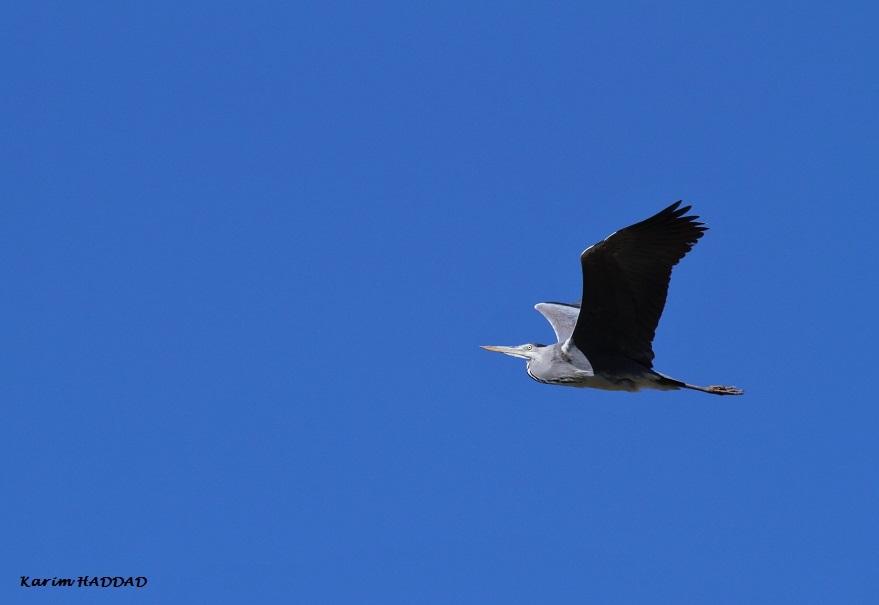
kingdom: Animalia
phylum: Chordata
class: Aves
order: Pelecaniformes
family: Ardeidae
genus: Ardea
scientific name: Ardea cinerea
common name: Grey heron
